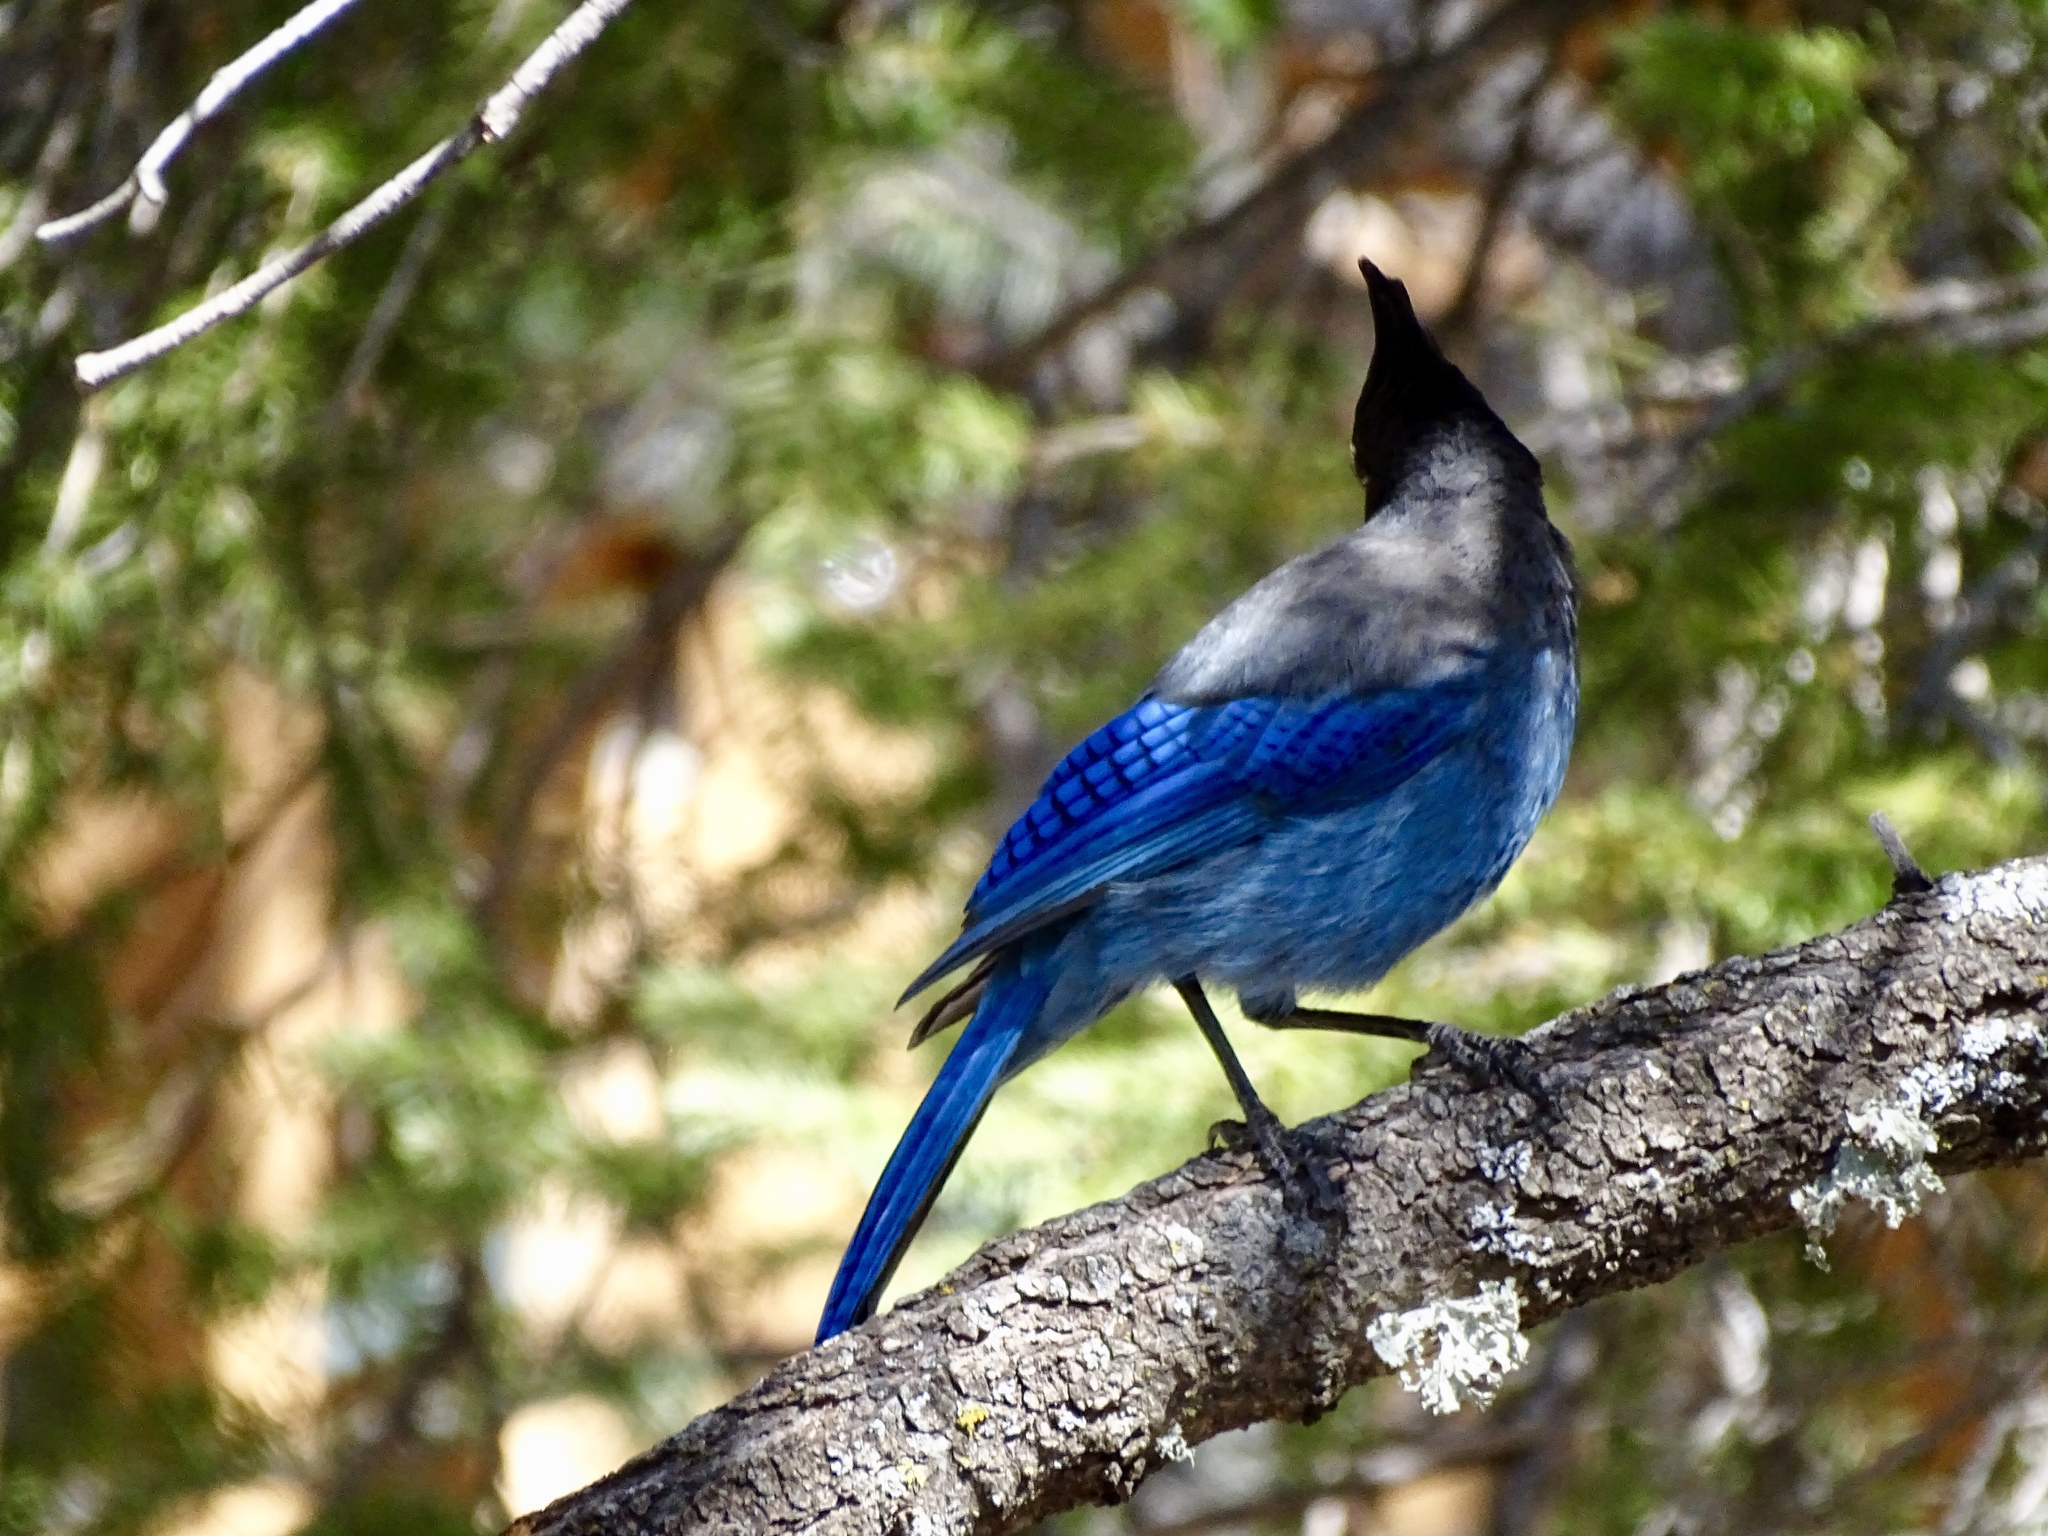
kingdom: Animalia
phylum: Chordata
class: Aves
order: Passeriformes
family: Corvidae
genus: Cyanocitta
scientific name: Cyanocitta stelleri
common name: Steller's jay
